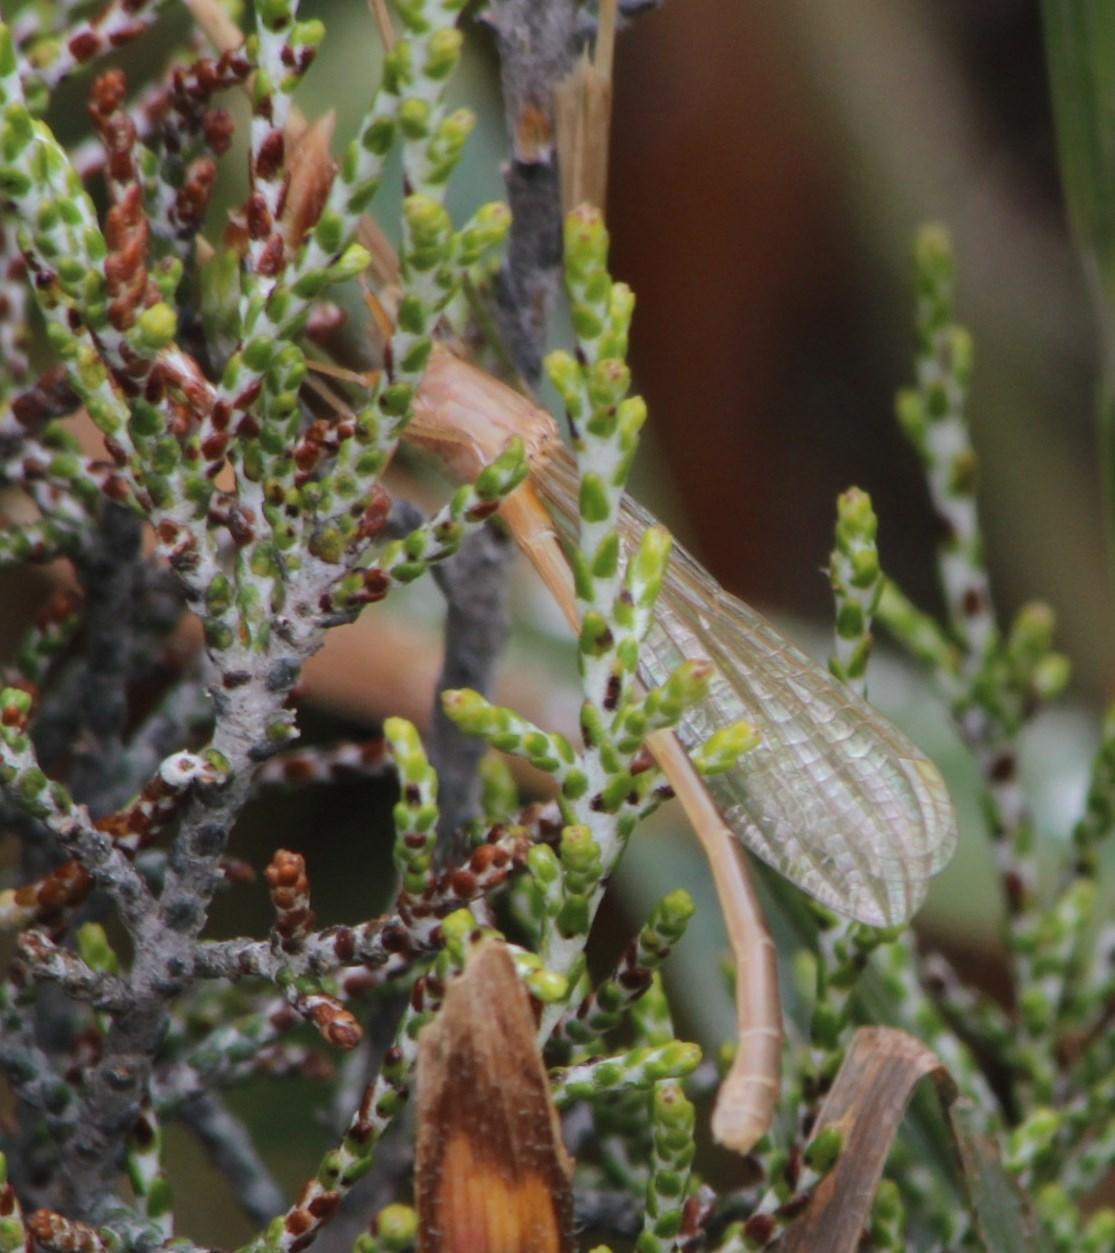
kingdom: Animalia
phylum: Arthropoda
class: Insecta
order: Odonata
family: Coenagrionidae
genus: Ischnura
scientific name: Ischnura senegalensis
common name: Tropical bluetail
